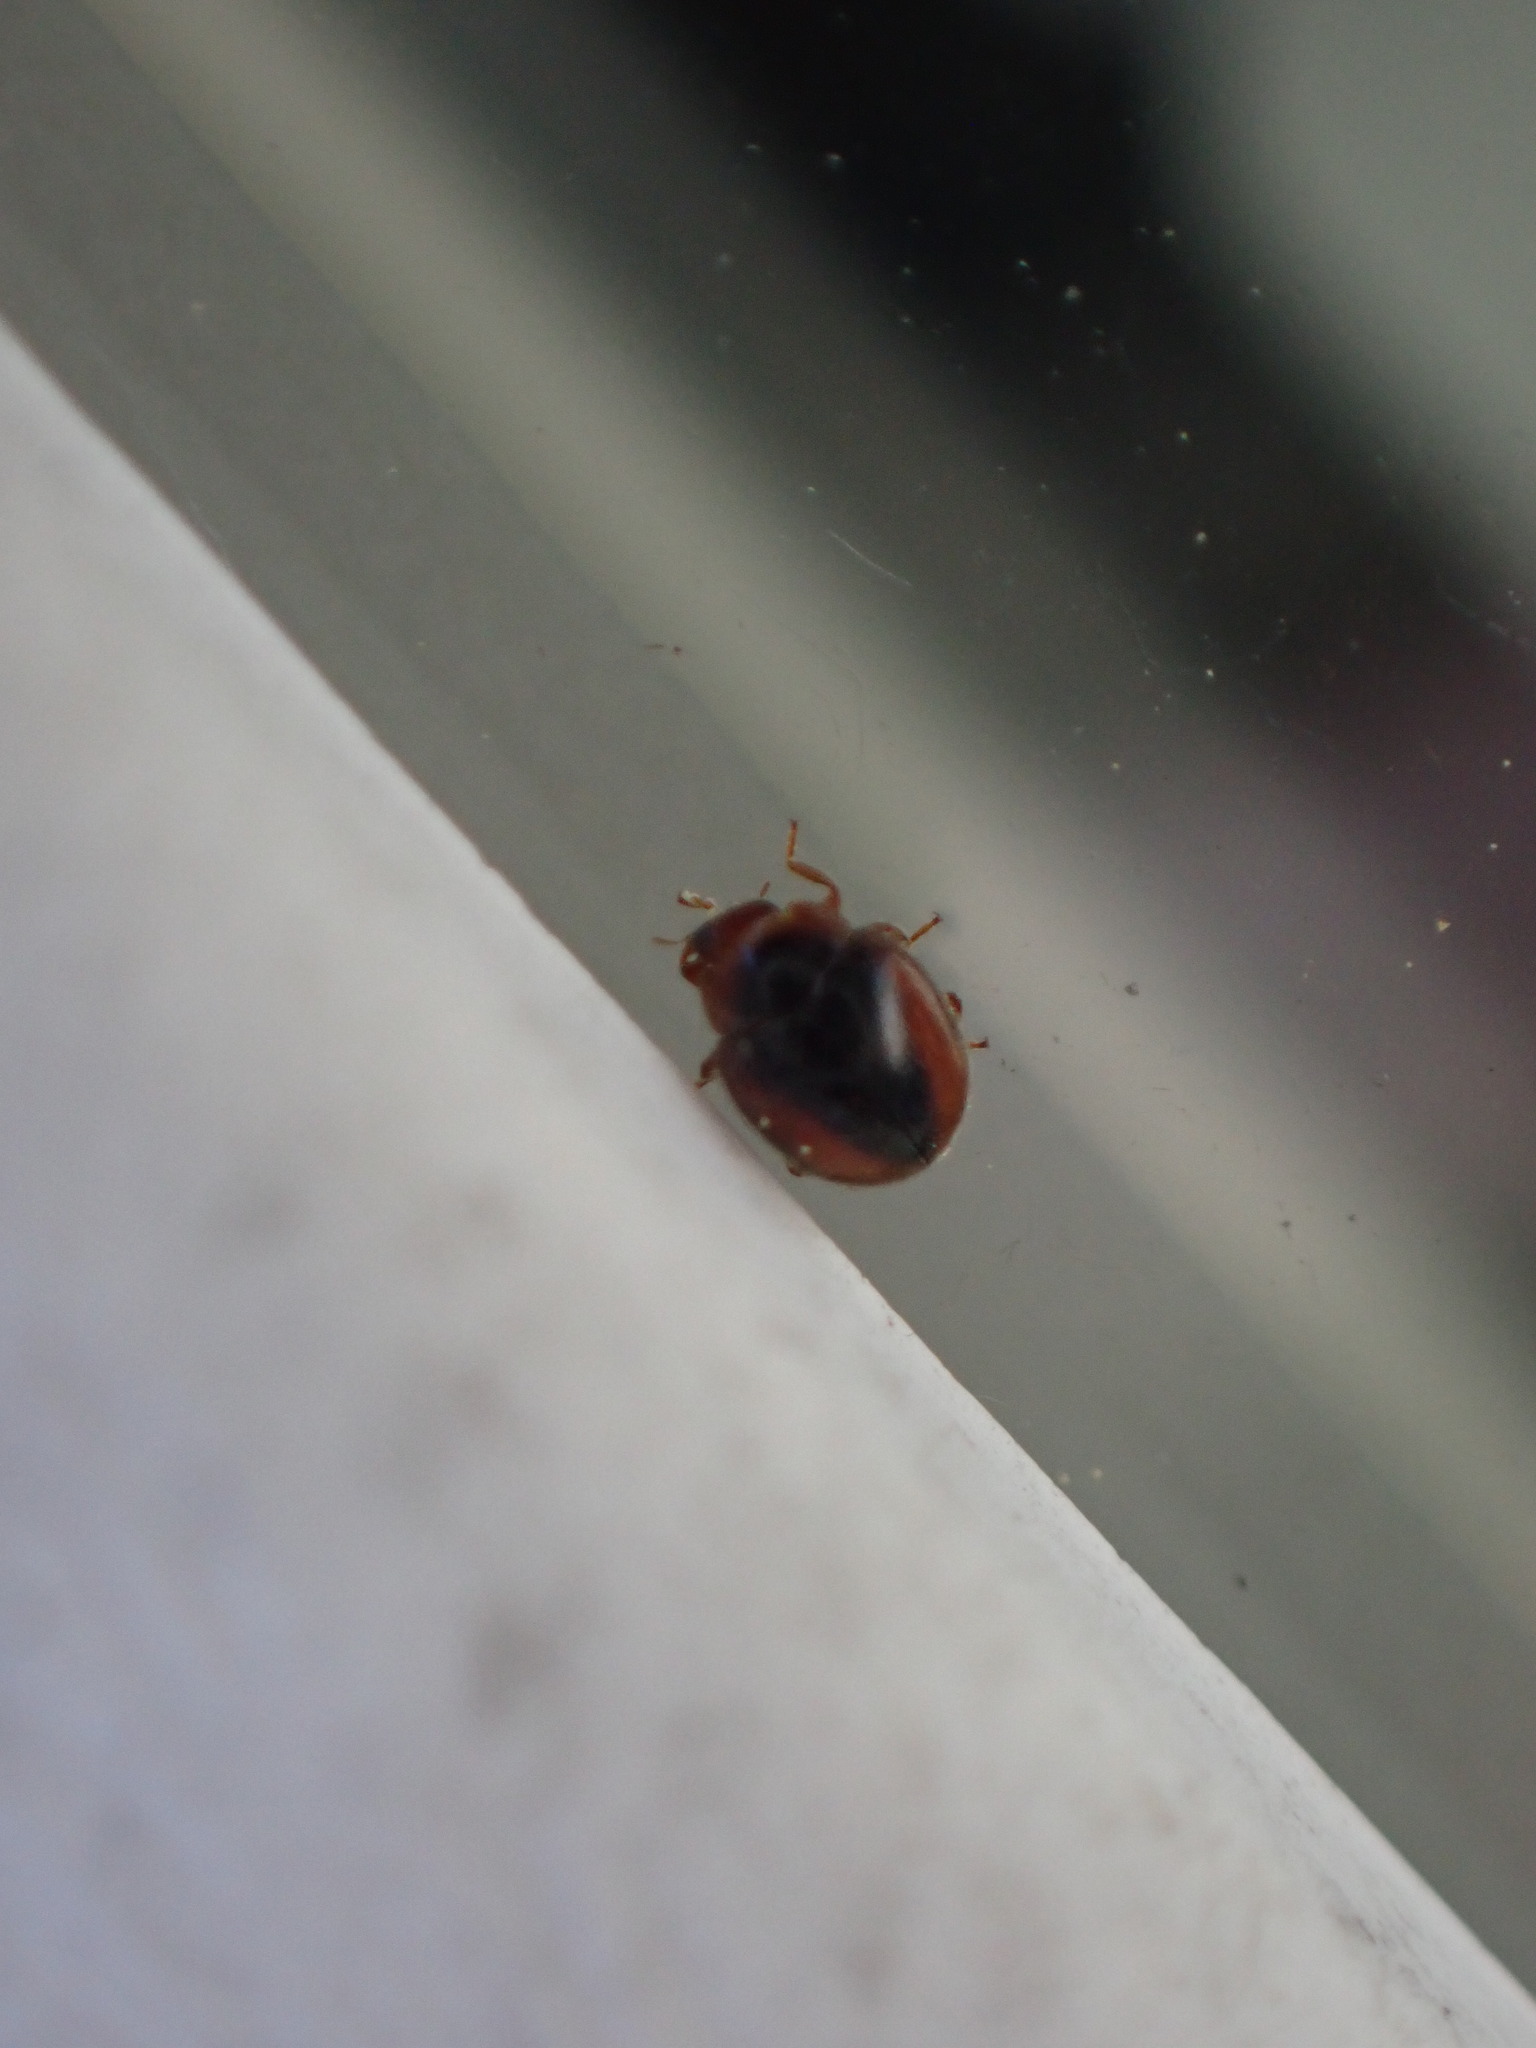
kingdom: Animalia
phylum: Arthropoda
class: Insecta
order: Coleoptera
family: Coccinellidae
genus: Scymnus
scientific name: Scymnus loewii
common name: Dusky lady beetle
